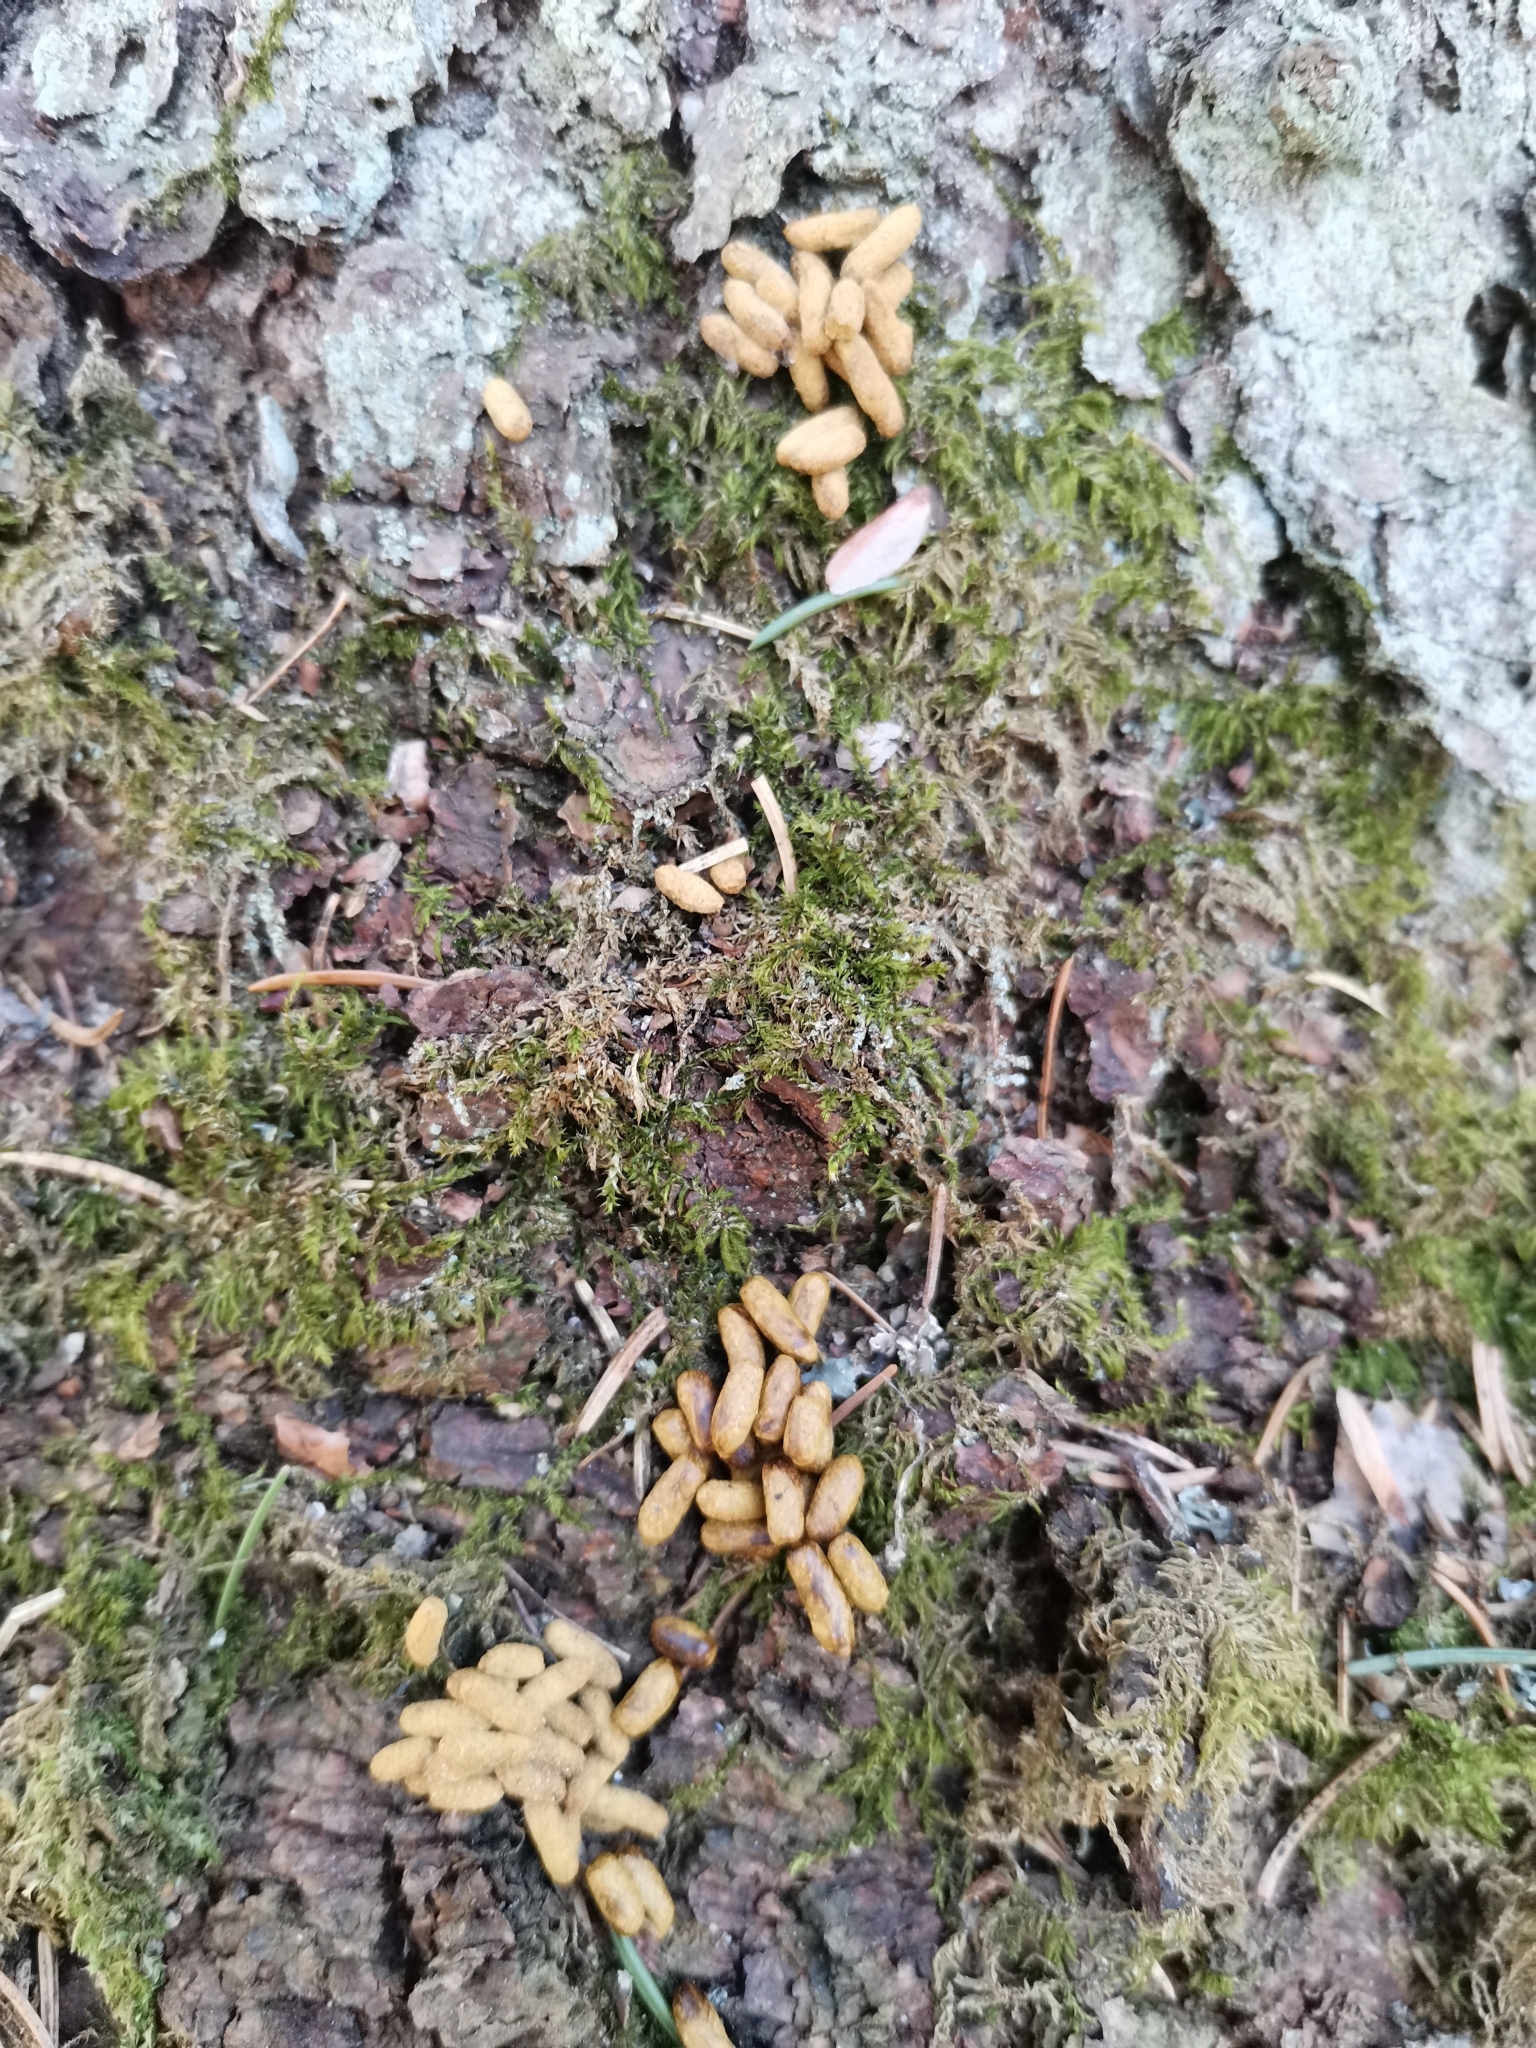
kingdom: Animalia
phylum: Chordata
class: Mammalia
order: Rodentia
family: Sciuridae
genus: Pteromys
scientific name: Pteromys volans
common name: Siberian flying squirrel
